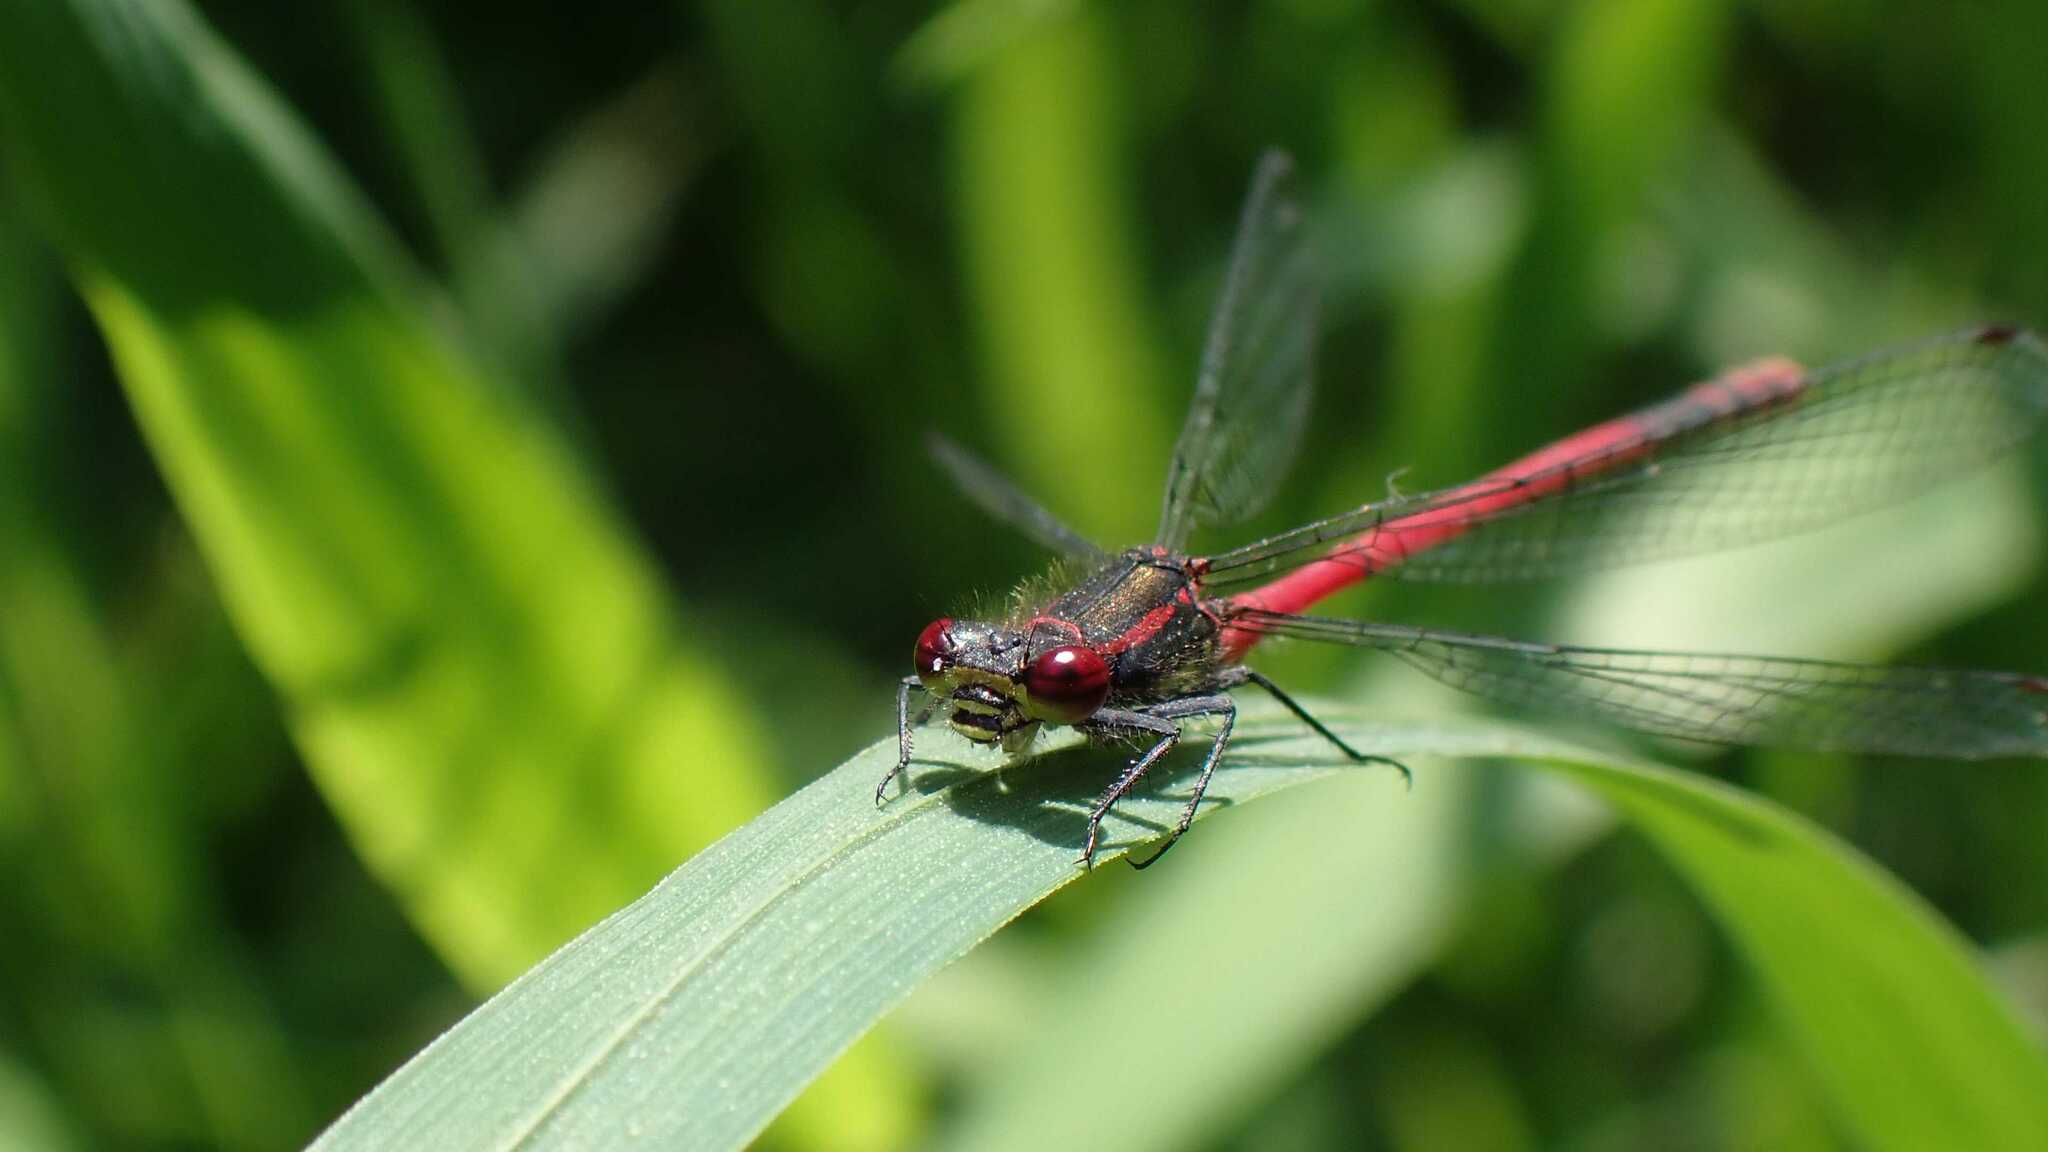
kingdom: Animalia
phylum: Arthropoda
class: Insecta
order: Odonata
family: Coenagrionidae
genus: Pyrrhosoma
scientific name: Pyrrhosoma nymphula
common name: Large red damsel
